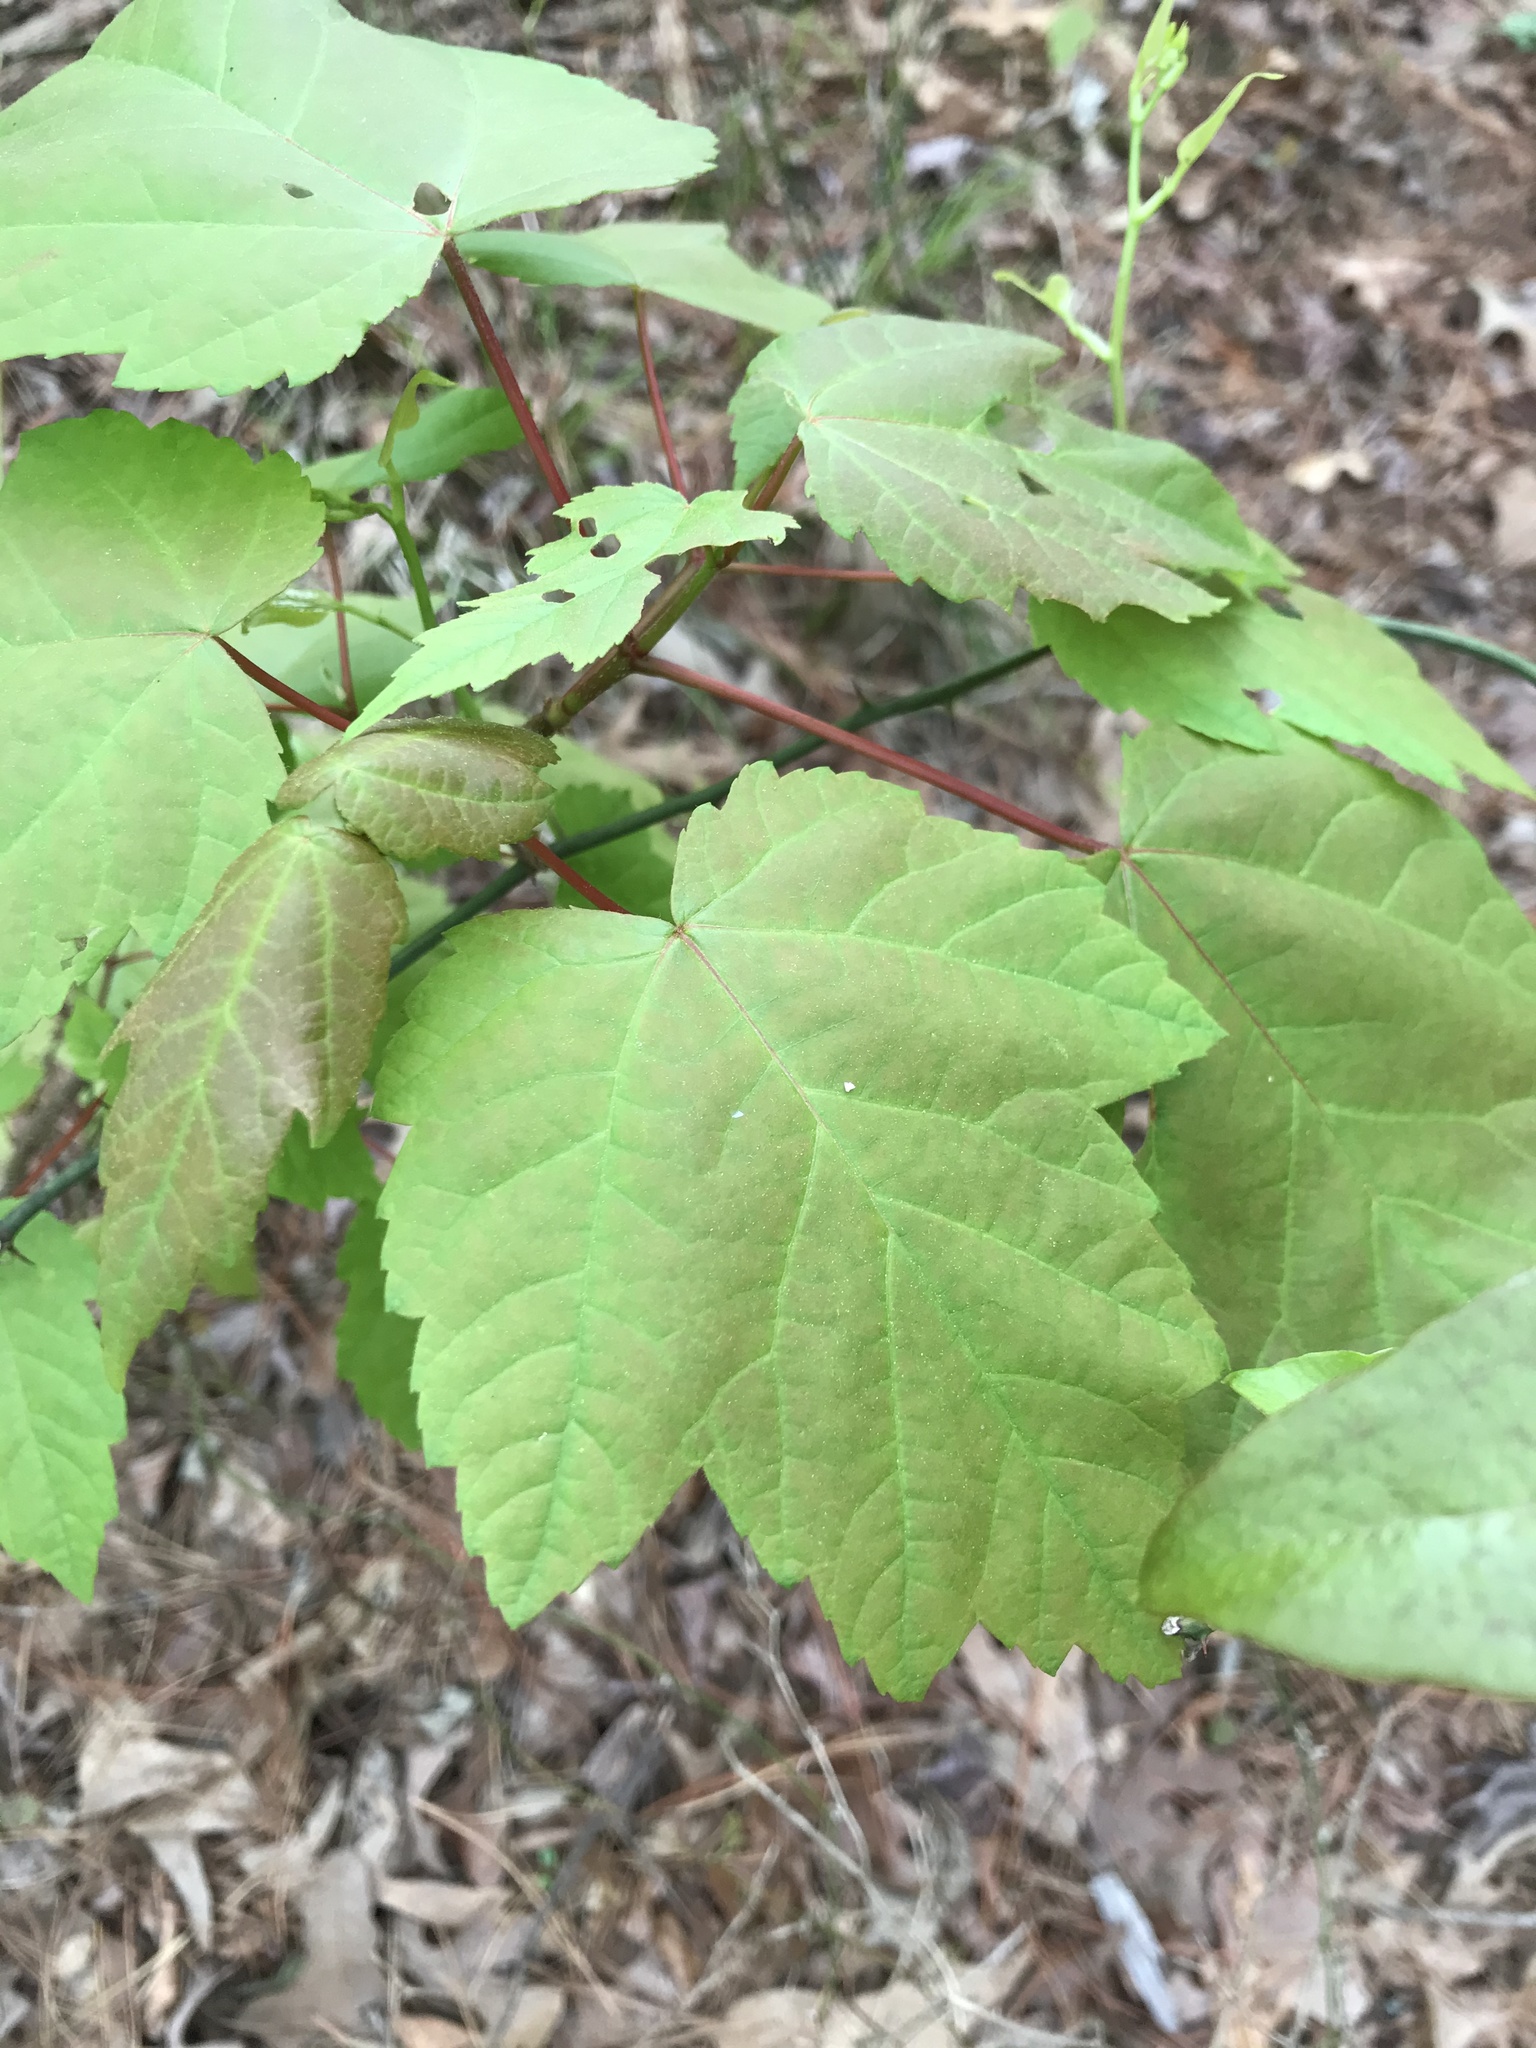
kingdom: Plantae
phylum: Tracheophyta
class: Magnoliopsida
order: Sapindales
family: Sapindaceae
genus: Acer
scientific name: Acer rubrum
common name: Red maple
